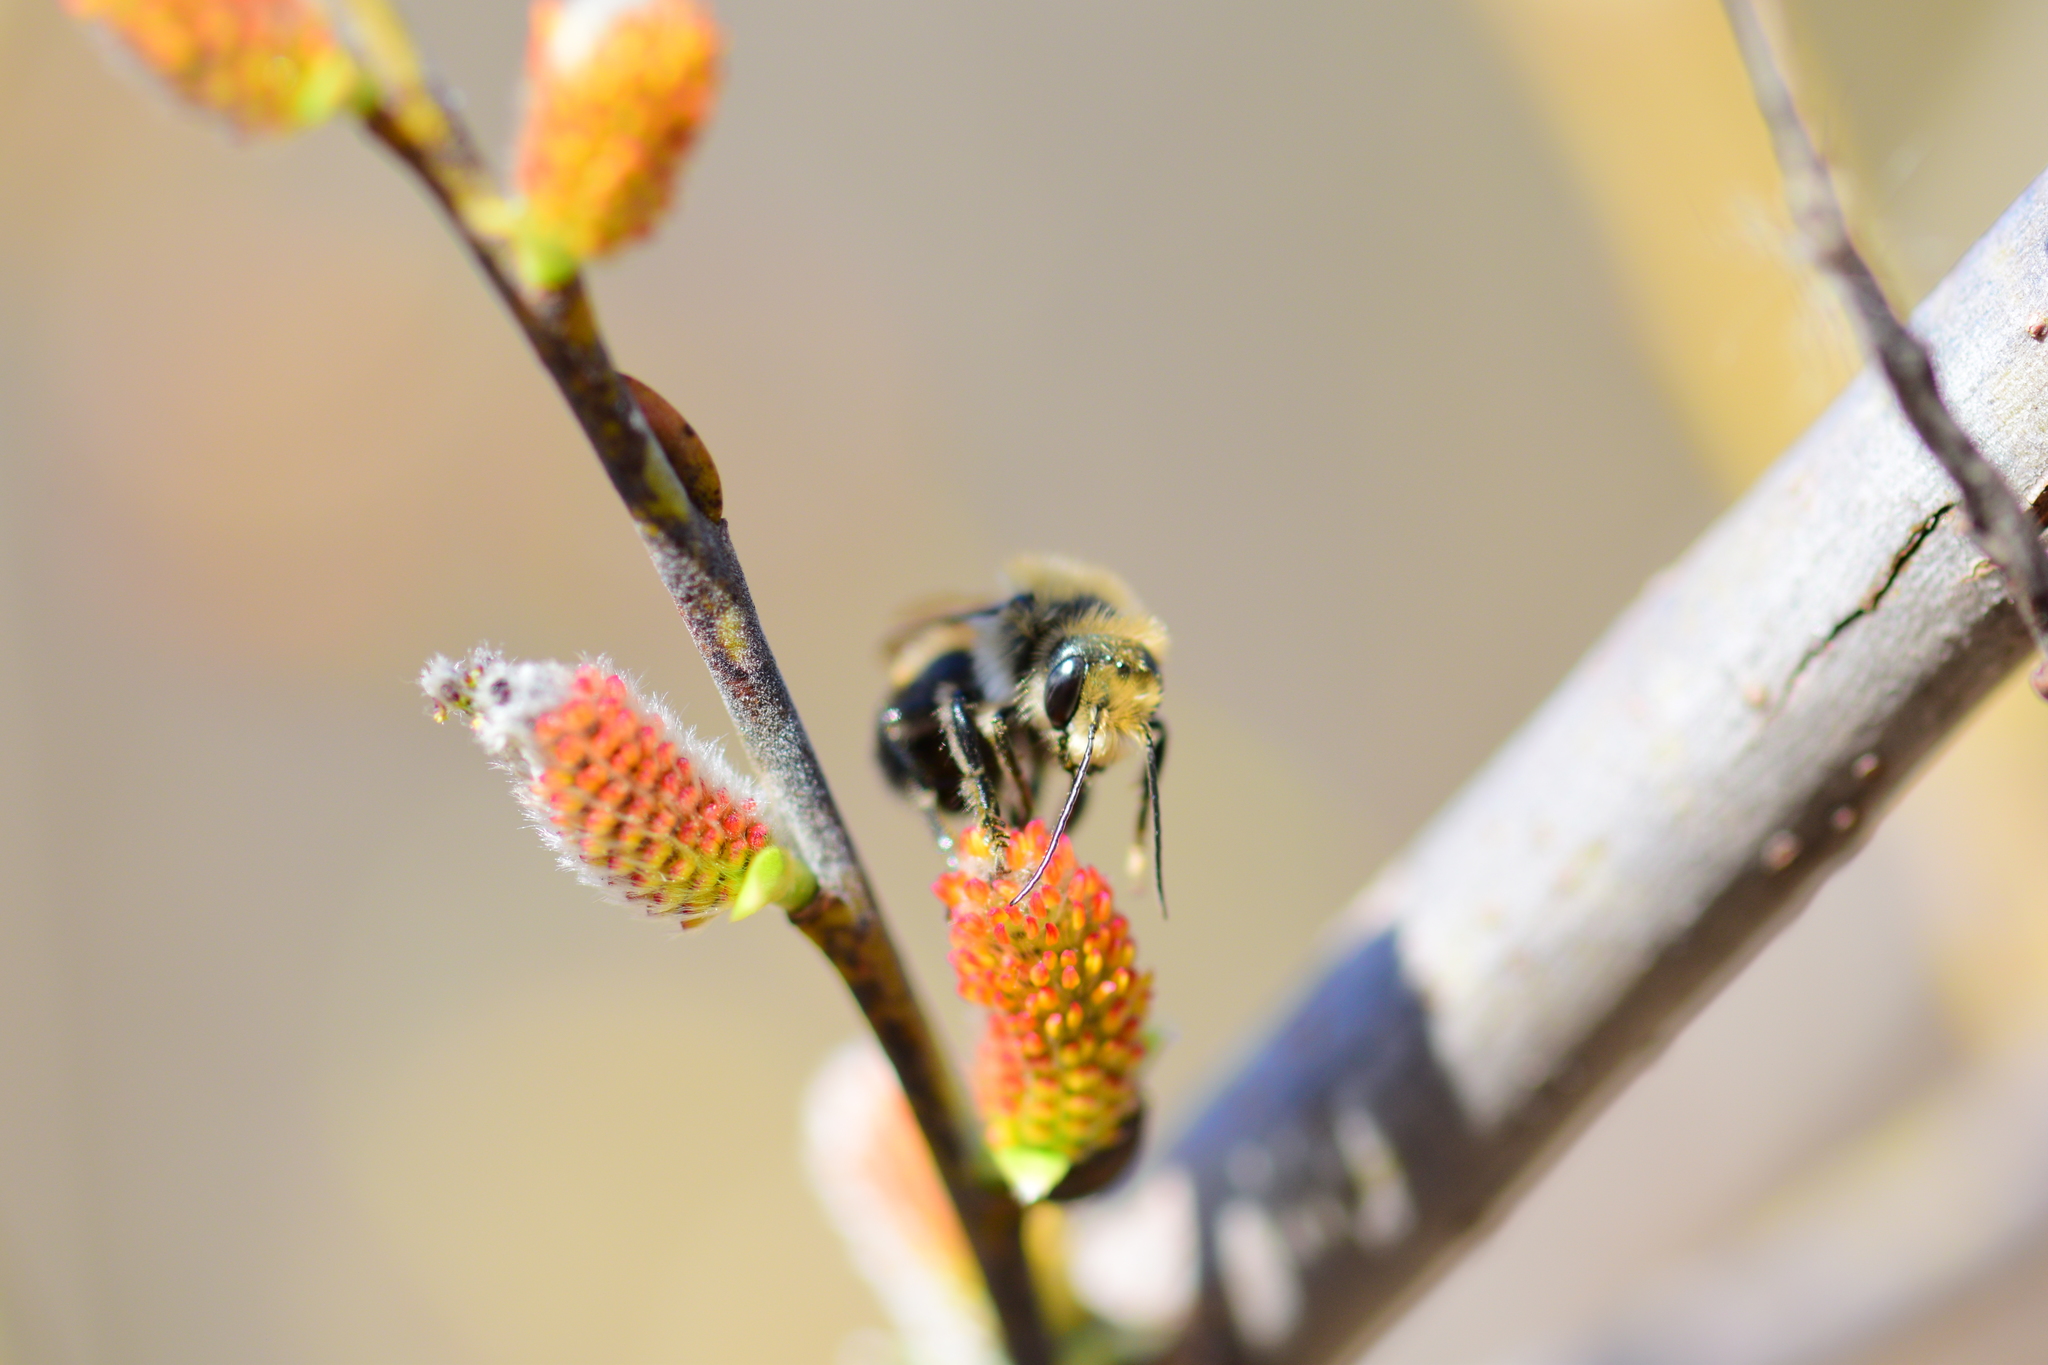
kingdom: Animalia
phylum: Arthropoda
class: Insecta
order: Hymenoptera
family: Megachilidae
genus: Osmia
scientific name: Osmia bucephala
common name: Bufflehead mason bee
